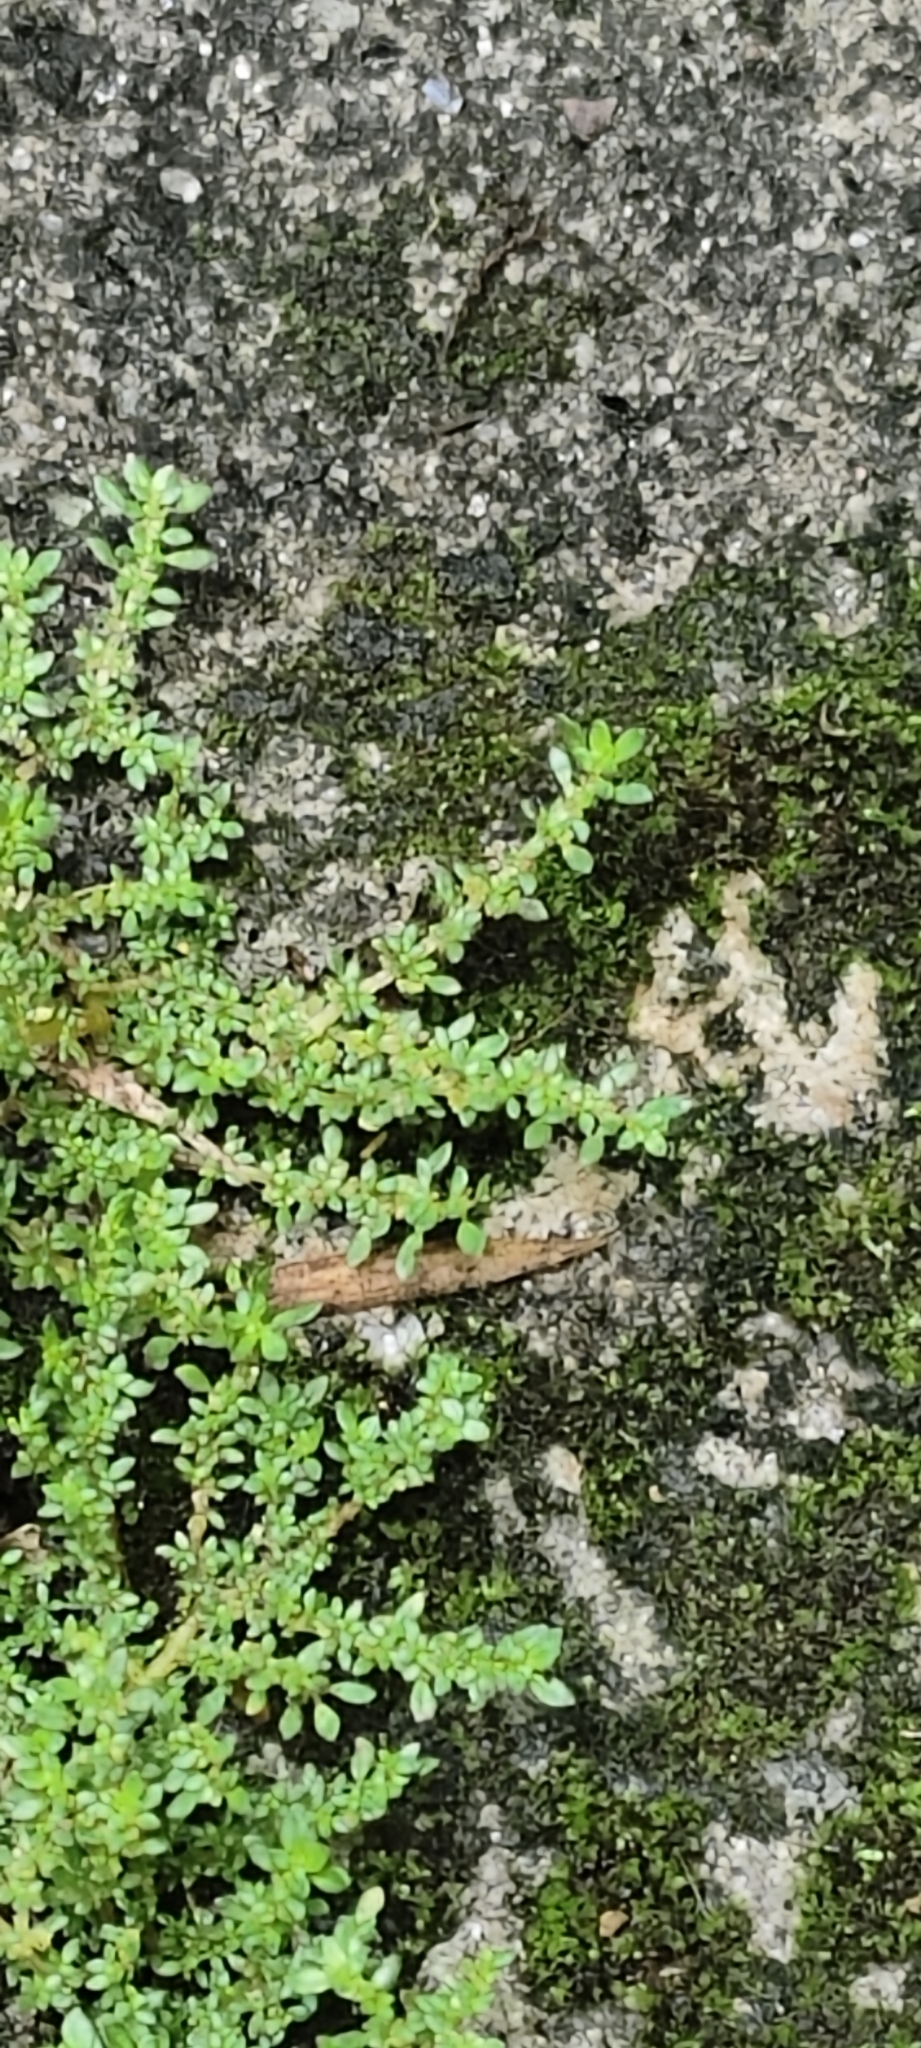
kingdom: Plantae
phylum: Tracheophyta
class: Magnoliopsida
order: Rosales
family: Urticaceae
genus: Pilea
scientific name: Pilea microphylla
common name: Artillery-plant
